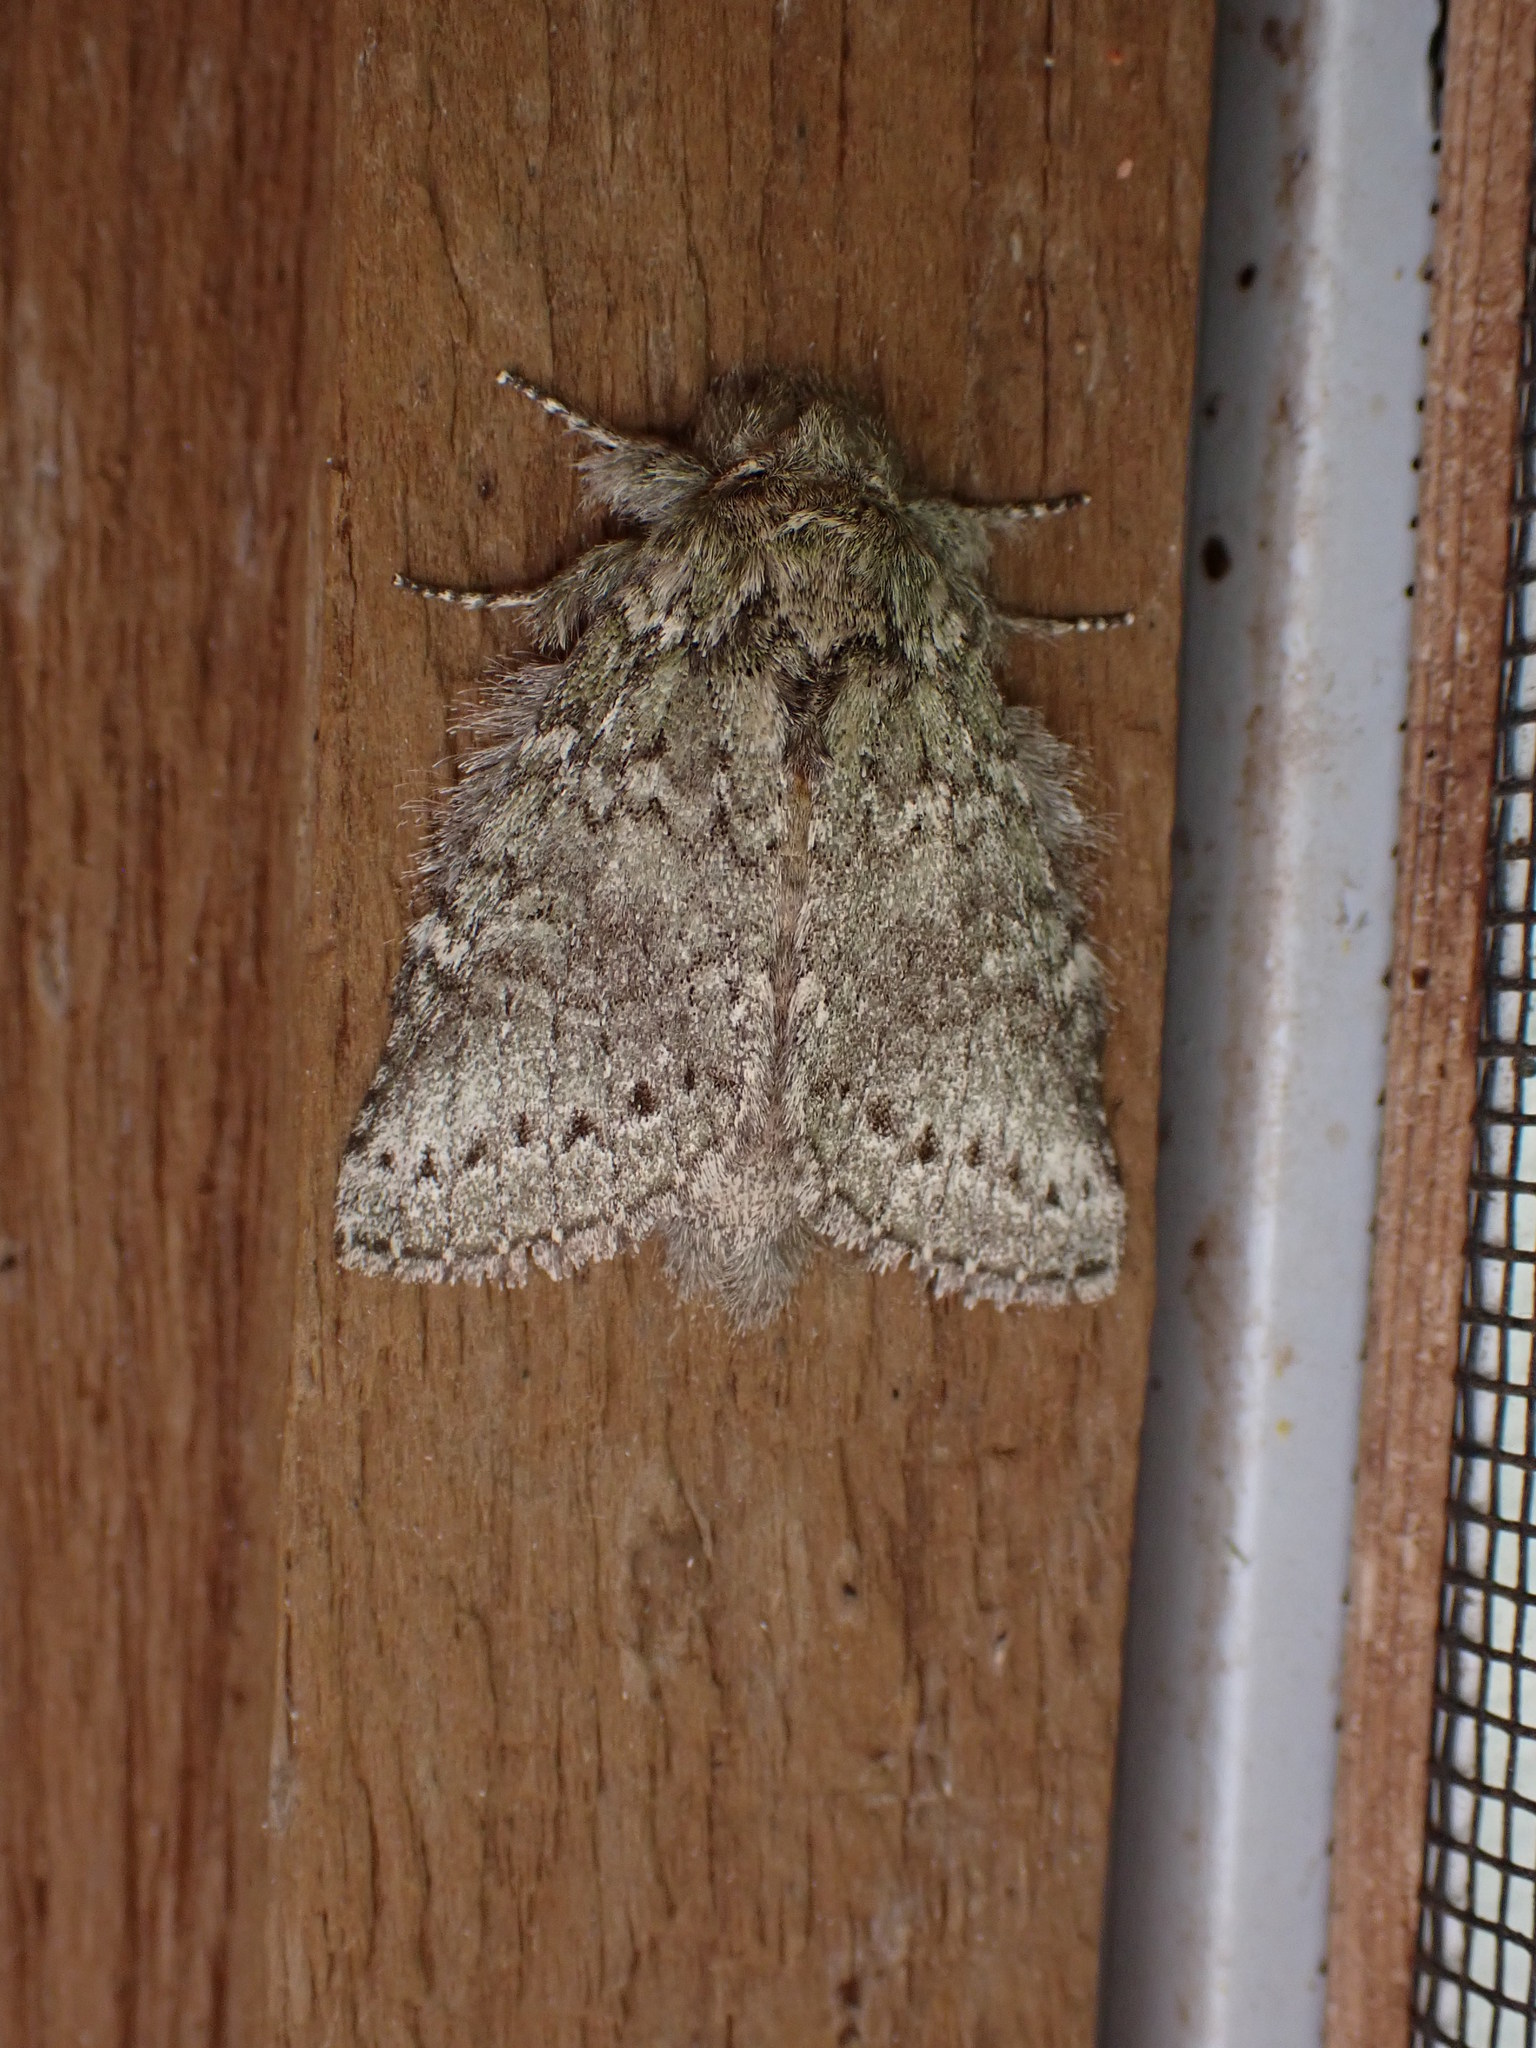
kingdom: Animalia
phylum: Arthropoda
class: Insecta
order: Lepidoptera
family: Notodontidae
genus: Disphragis
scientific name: Disphragis Cecrita guttivitta
